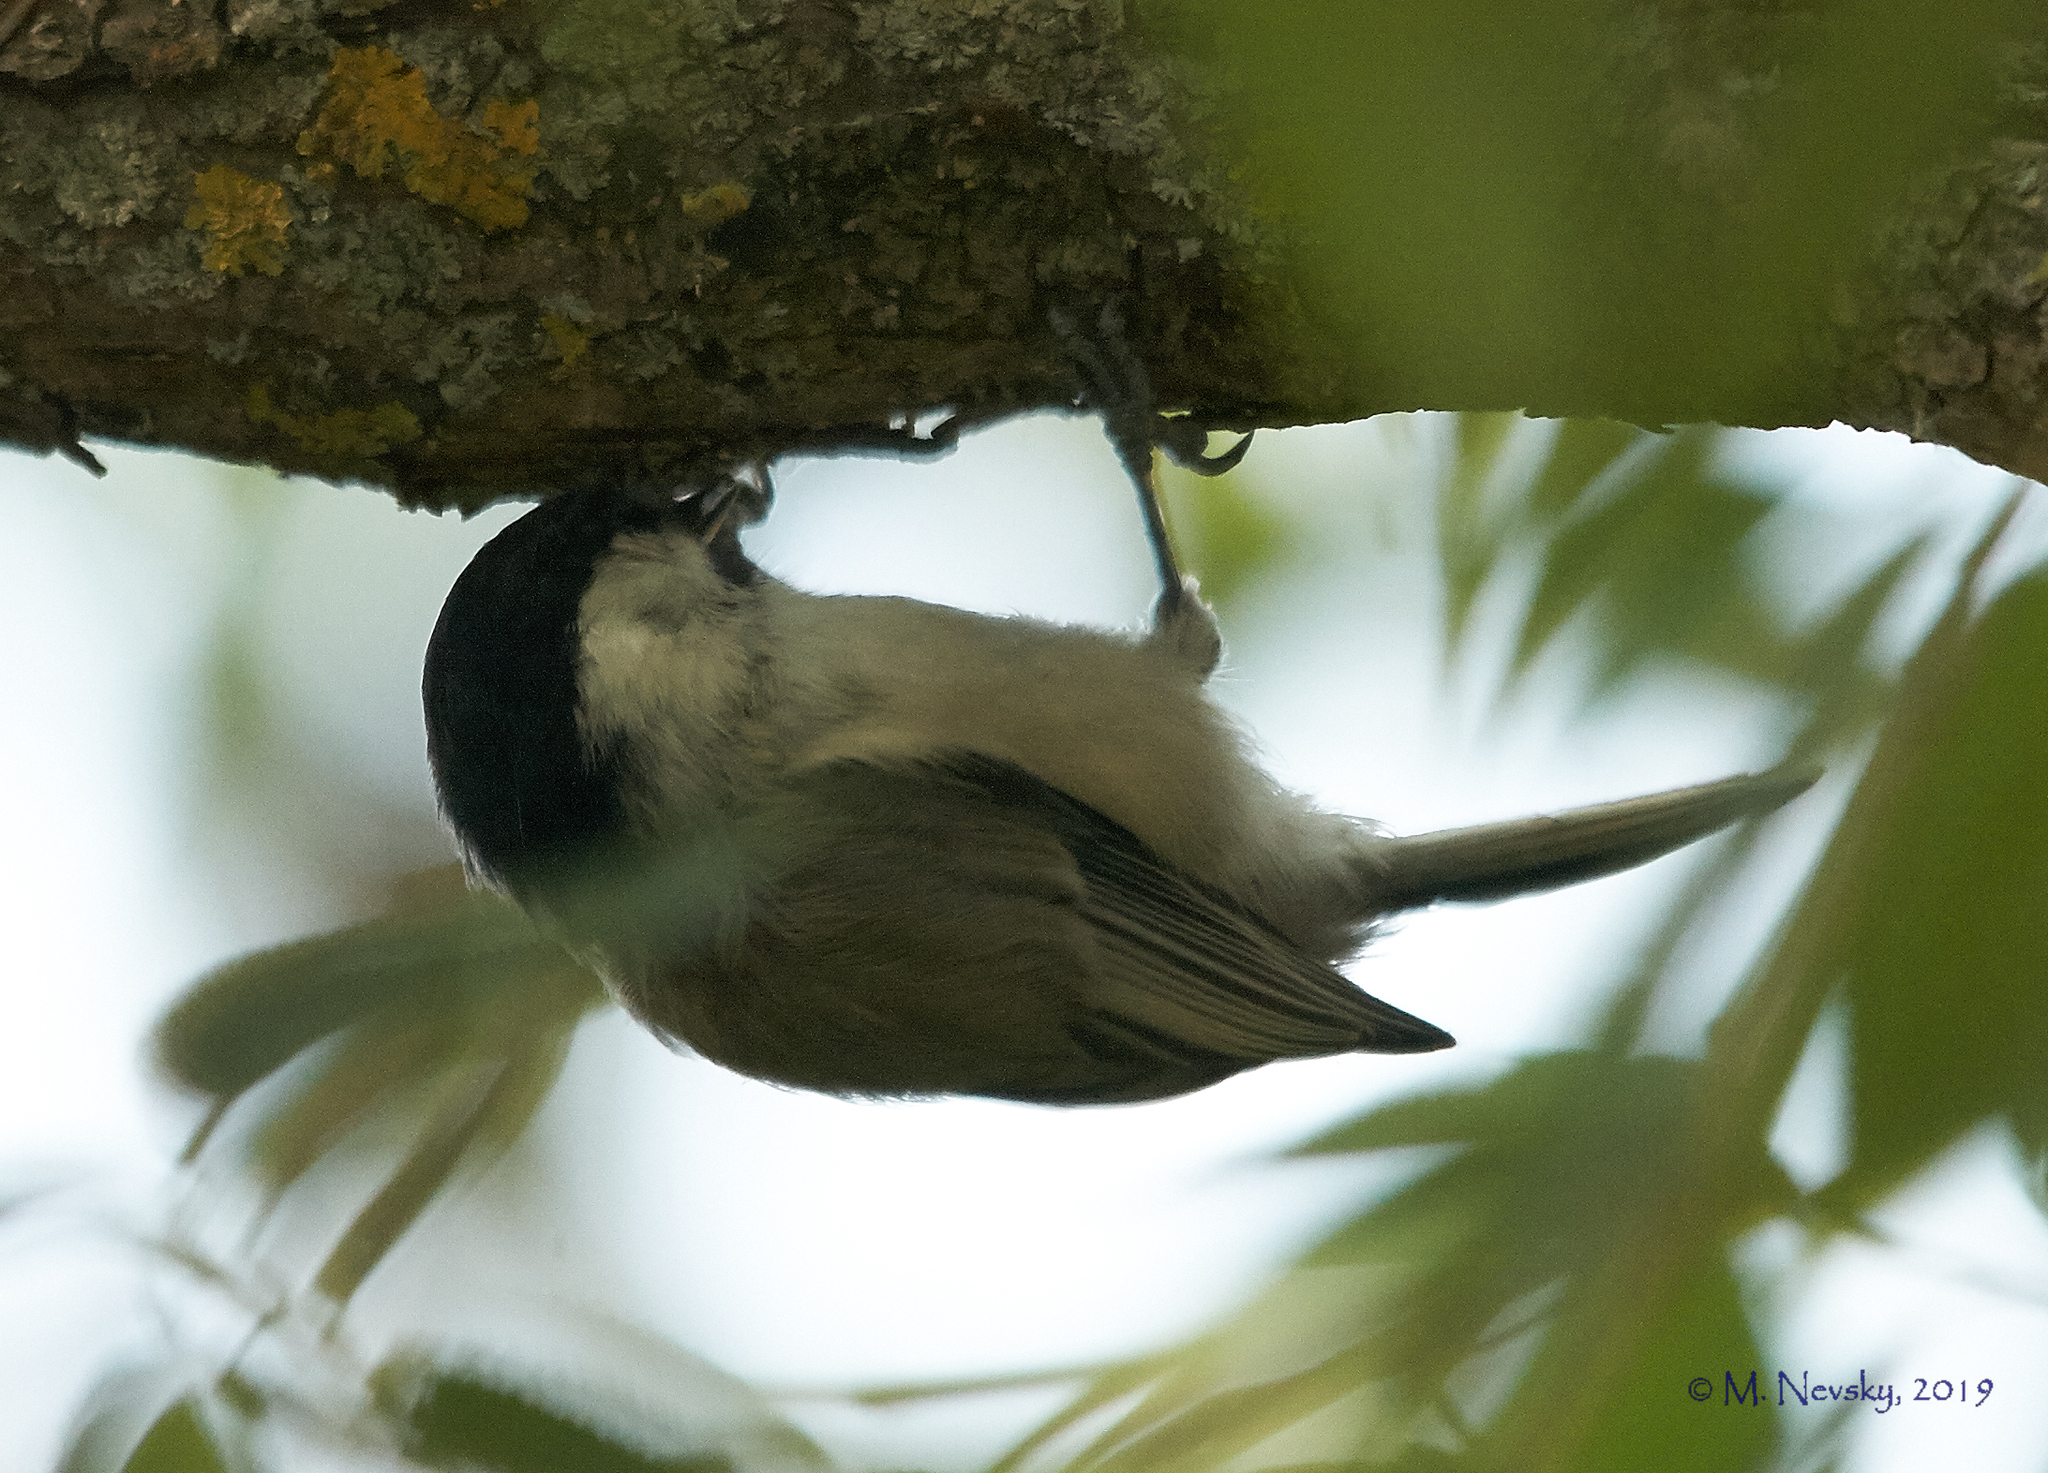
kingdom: Animalia
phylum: Chordata
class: Aves
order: Passeriformes
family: Paridae
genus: Poecile
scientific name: Poecile montanus
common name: Willow tit
